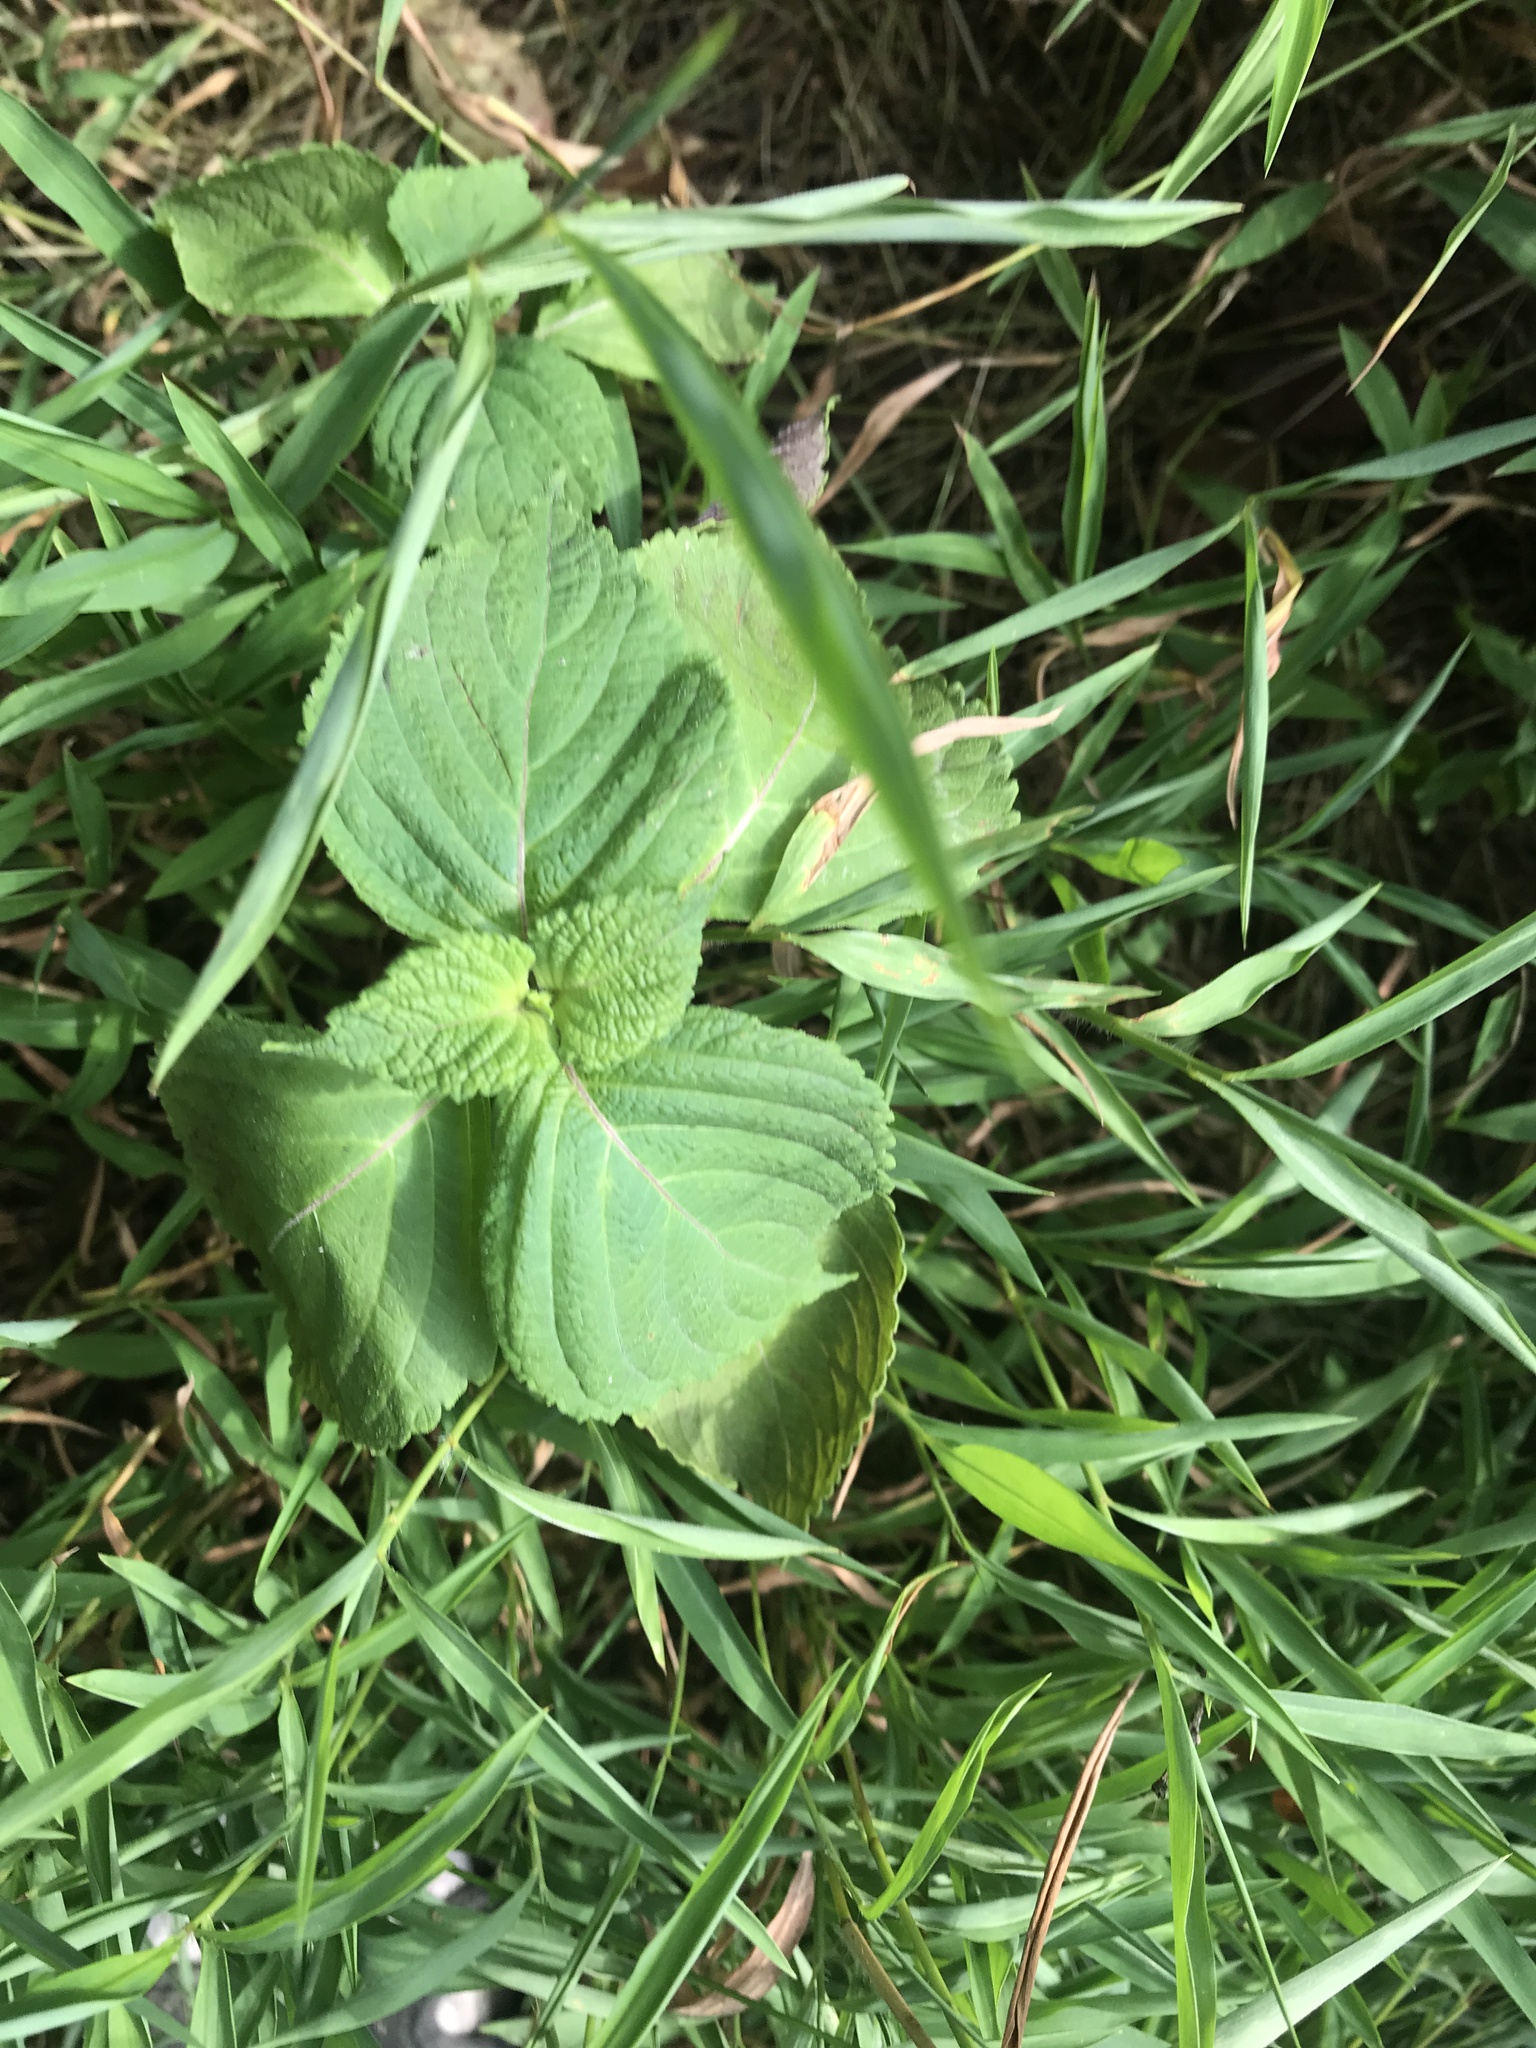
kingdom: Plantae
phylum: Tracheophyta
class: Magnoliopsida
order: Lamiales
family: Lamiaceae
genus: Perilla
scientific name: Perilla frutescens
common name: Perilla
